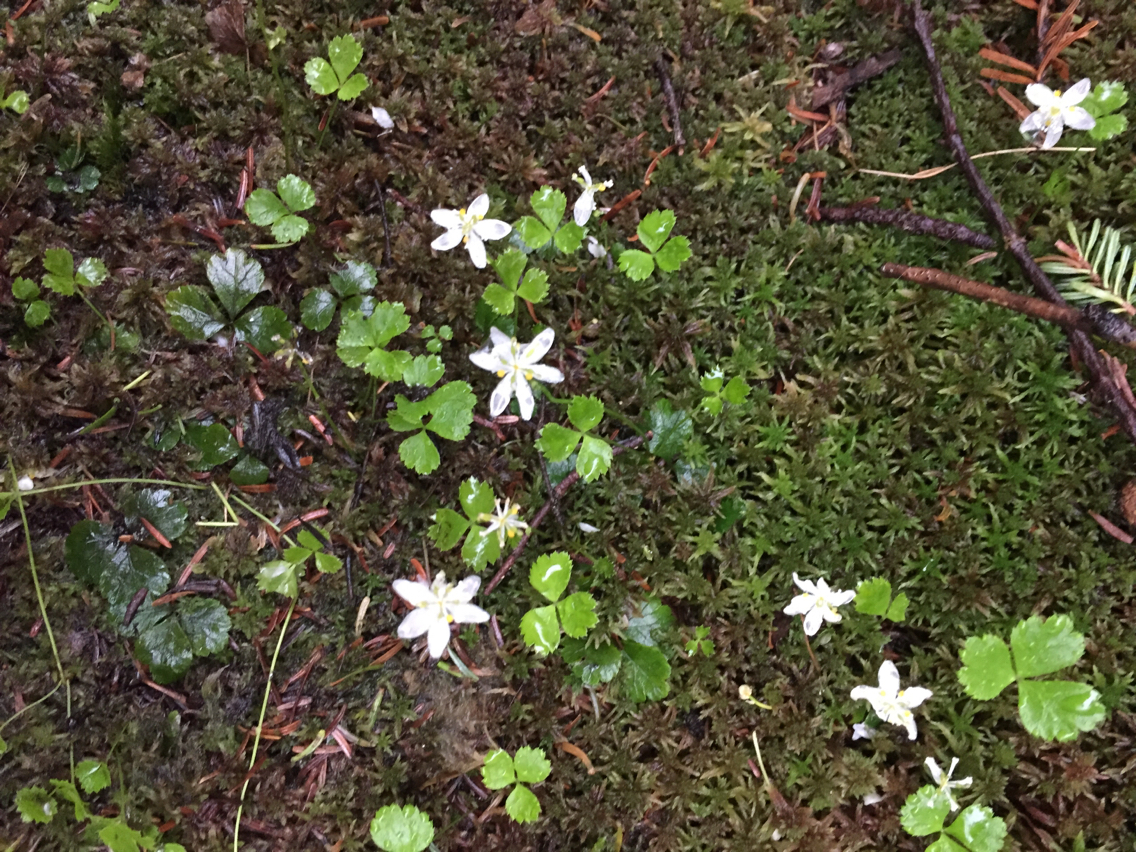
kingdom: Plantae
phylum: Tracheophyta
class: Magnoliopsida
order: Ranunculales
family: Ranunculaceae
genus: Coptis
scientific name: Coptis trifolia
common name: Canker-root
